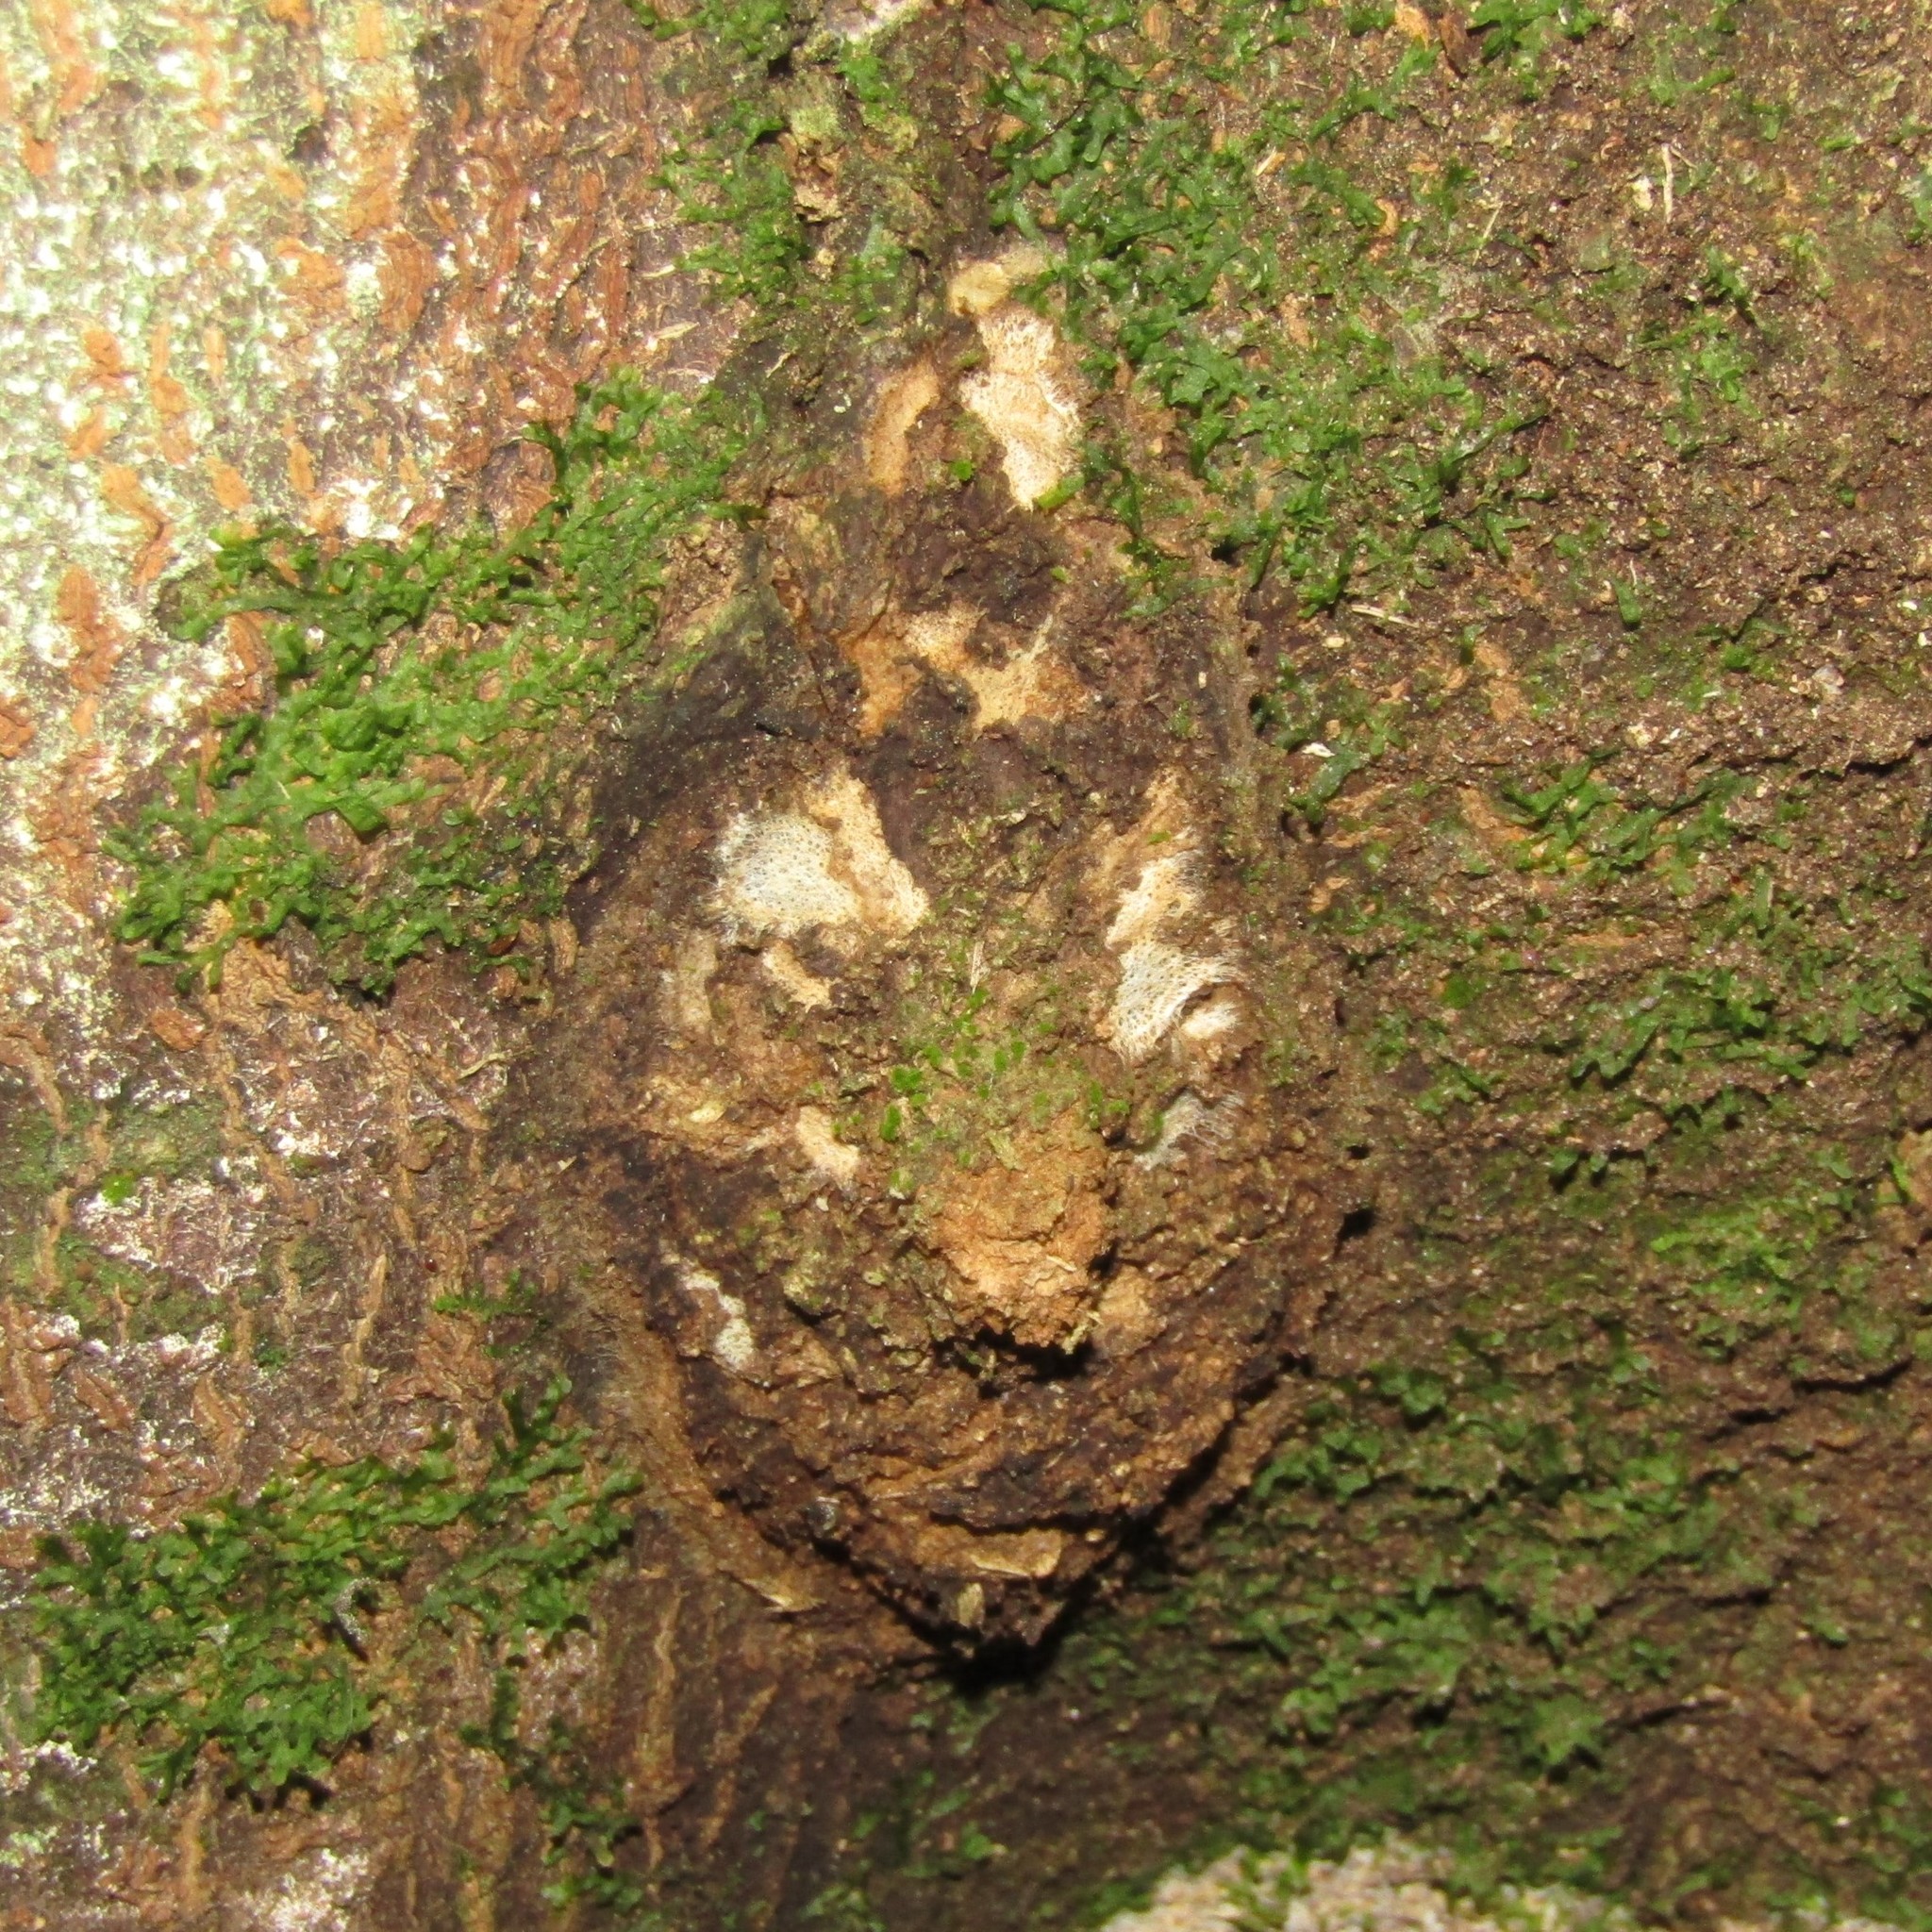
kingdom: Animalia
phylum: Arthropoda
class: Insecta
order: Lepidoptera
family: Hepialidae
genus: Aenetus
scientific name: Aenetus virescens
